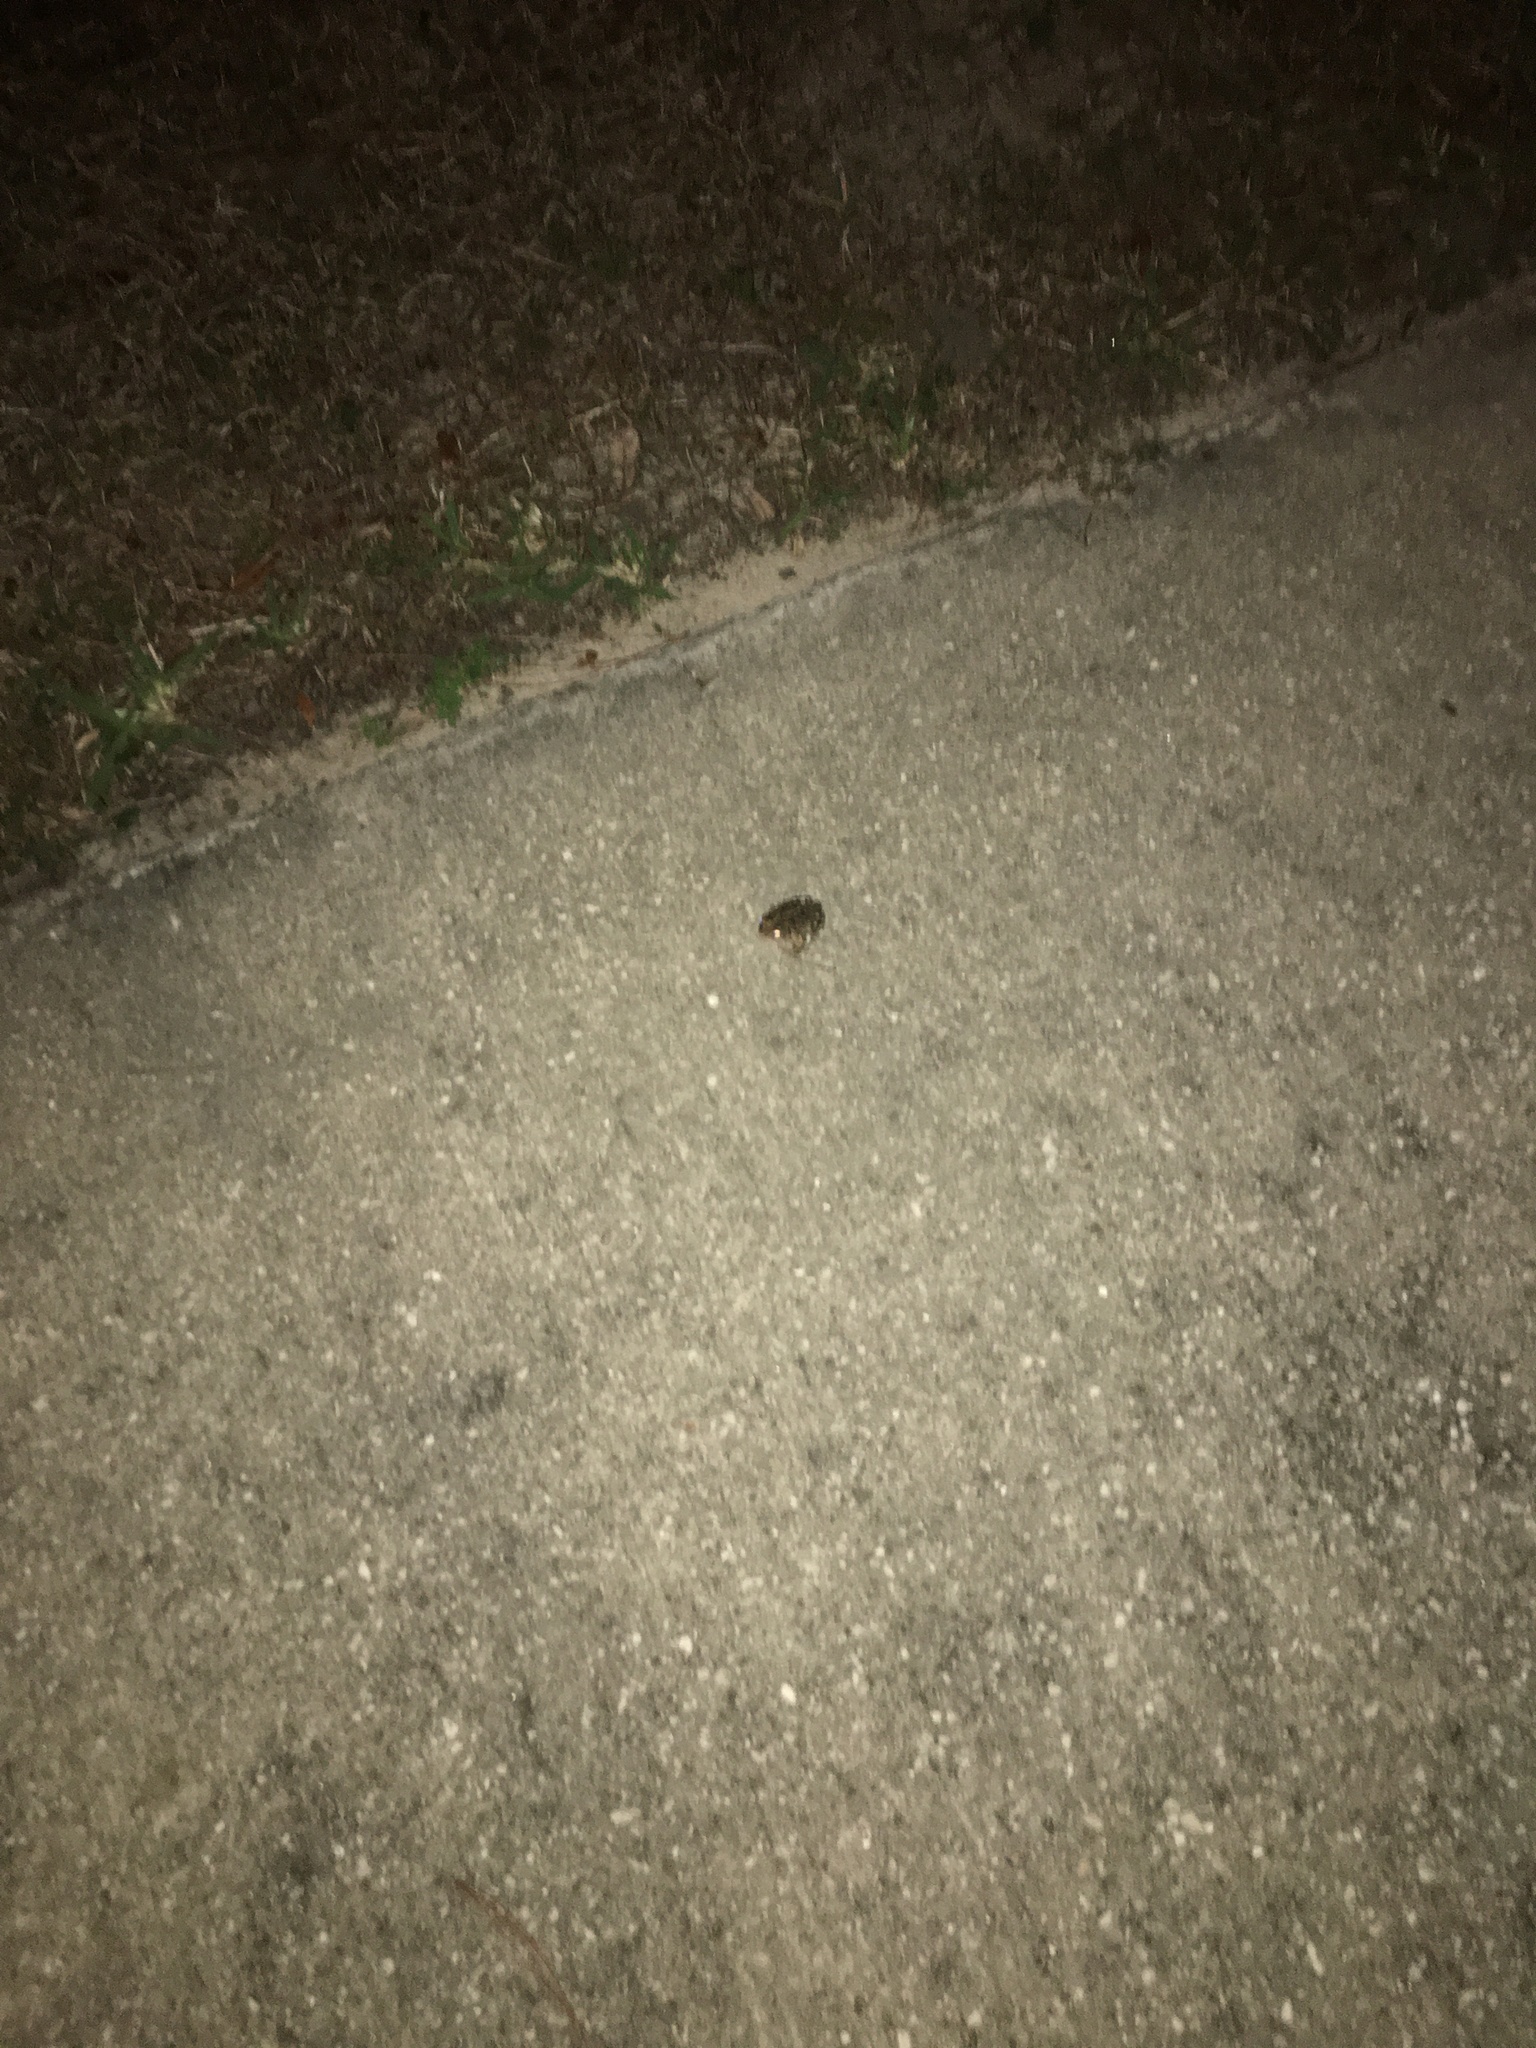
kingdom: Animalia
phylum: Chordata
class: Amphibia
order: Anura
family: Bufonidae
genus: Anaxyrus
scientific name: Anaxyrus terrestris
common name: Southern toad
